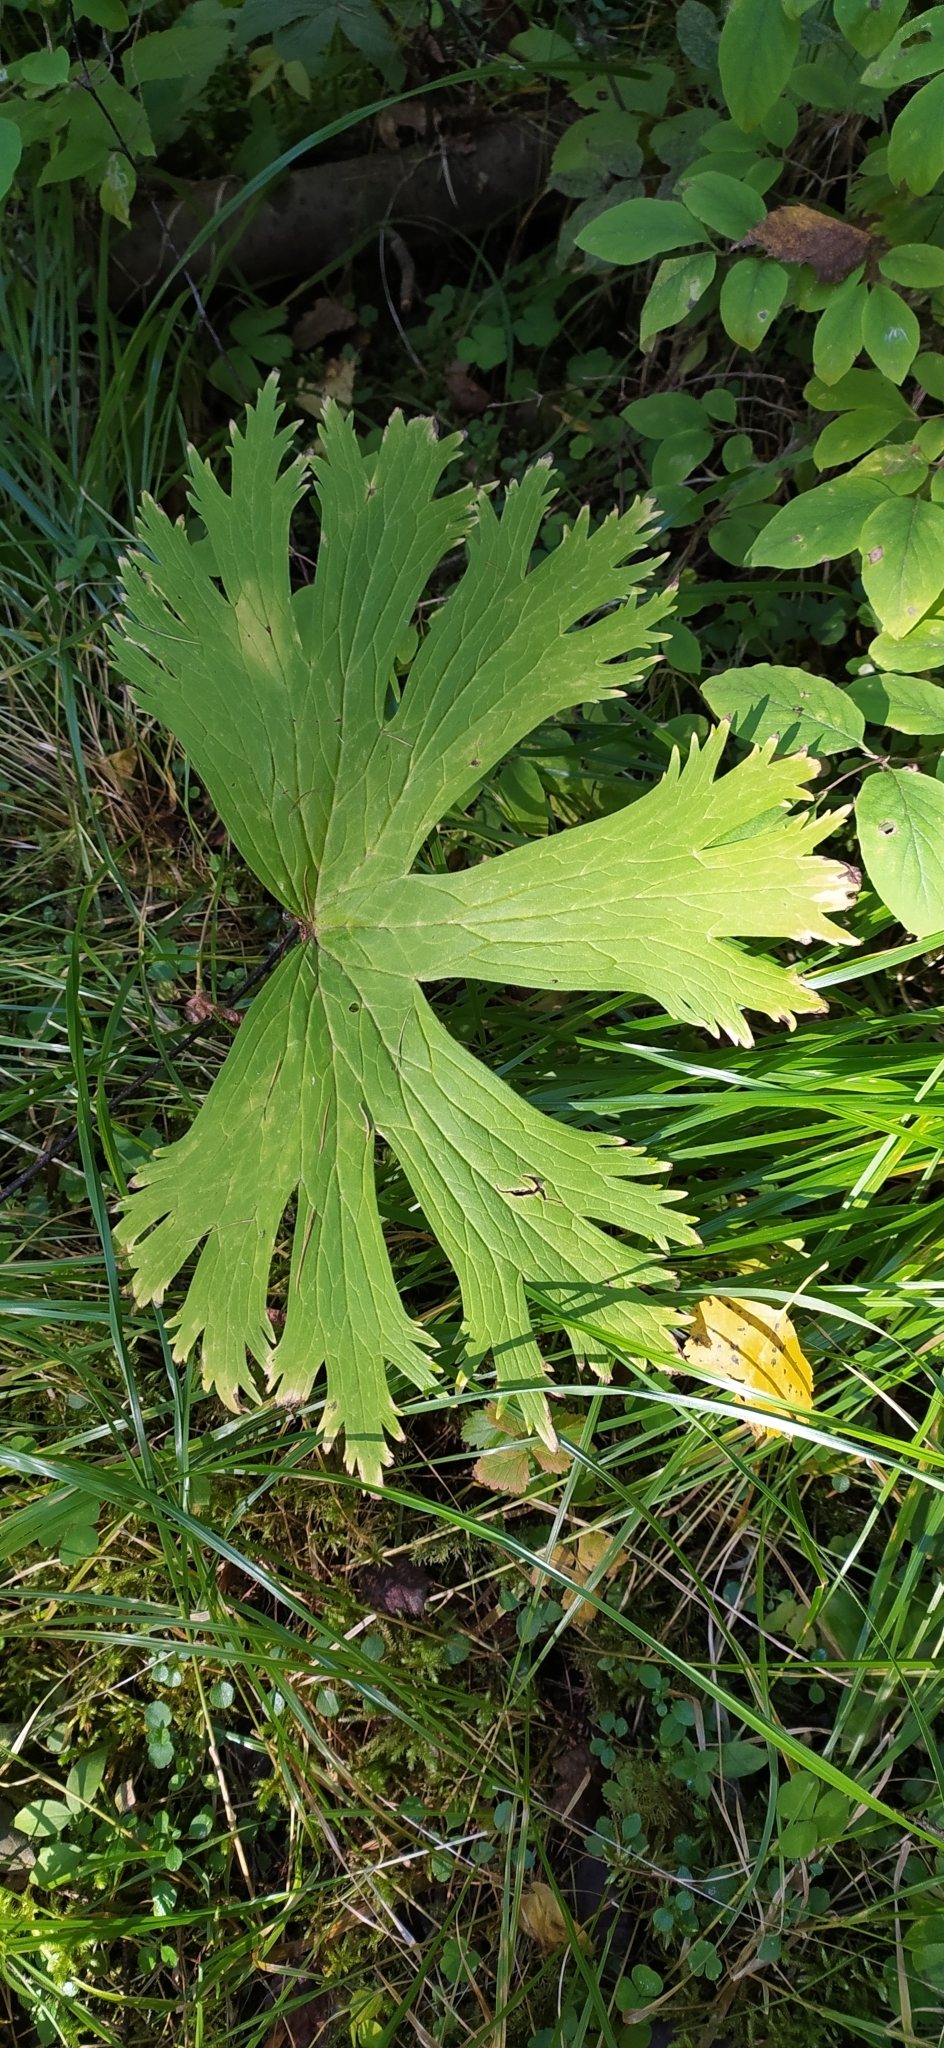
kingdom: Plantae
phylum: Tracheophyta
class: Magnoliopsida
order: Ranunculales
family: Ranunculaceae
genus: Aconitum
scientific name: Aconitum septentrionale
